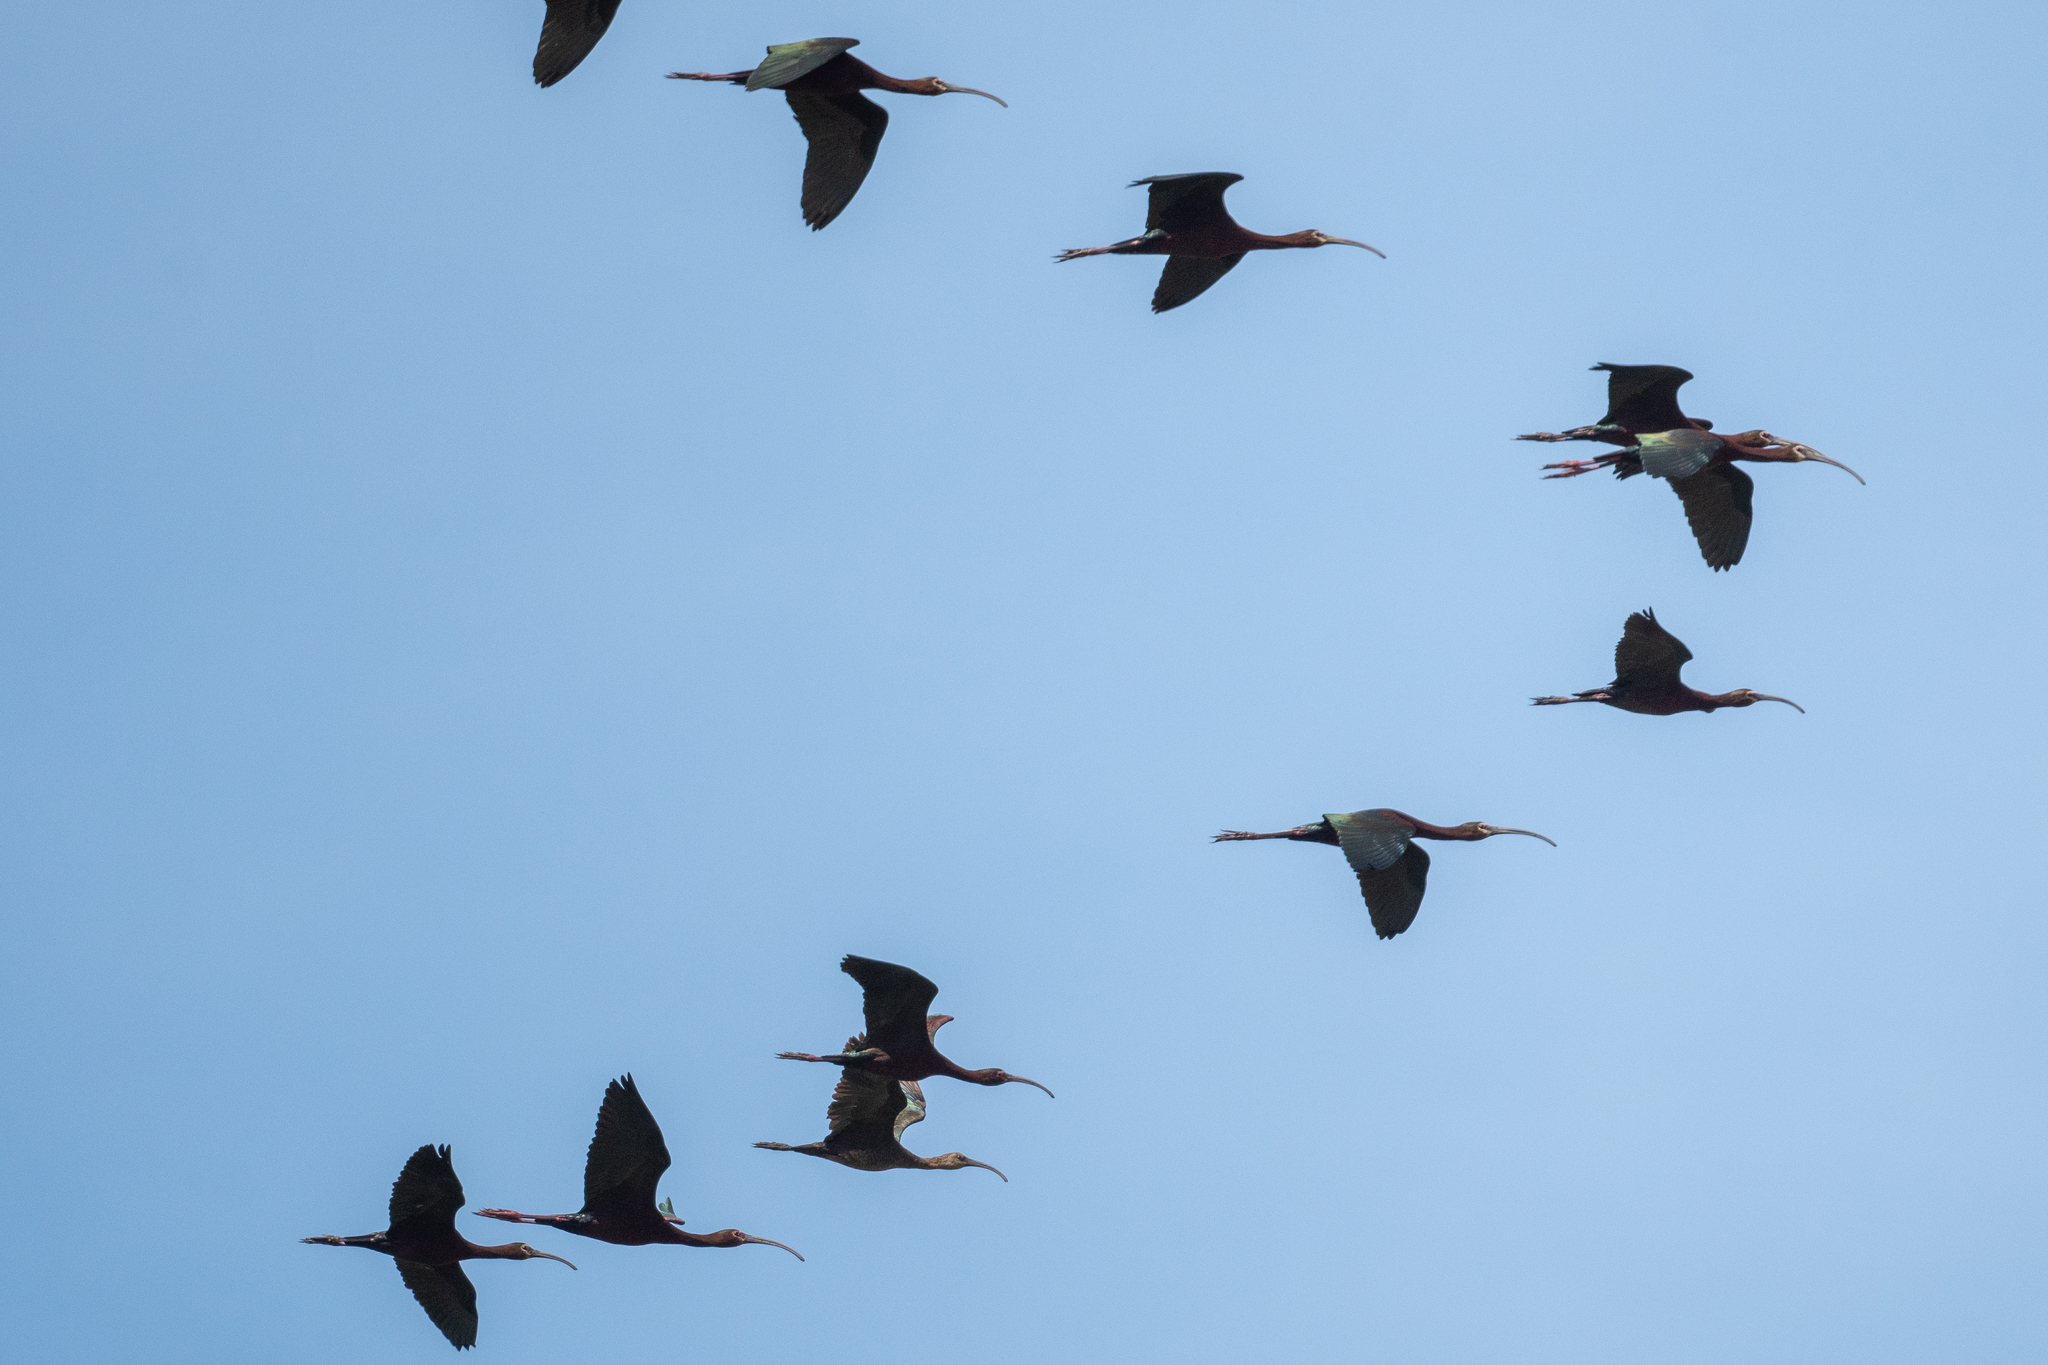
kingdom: Animalia
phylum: Chordata
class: Aves
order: Pelecaniformes
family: Threskiornithidae
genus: Plegadis
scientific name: Plegadis chihi
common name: White-faced ibis
